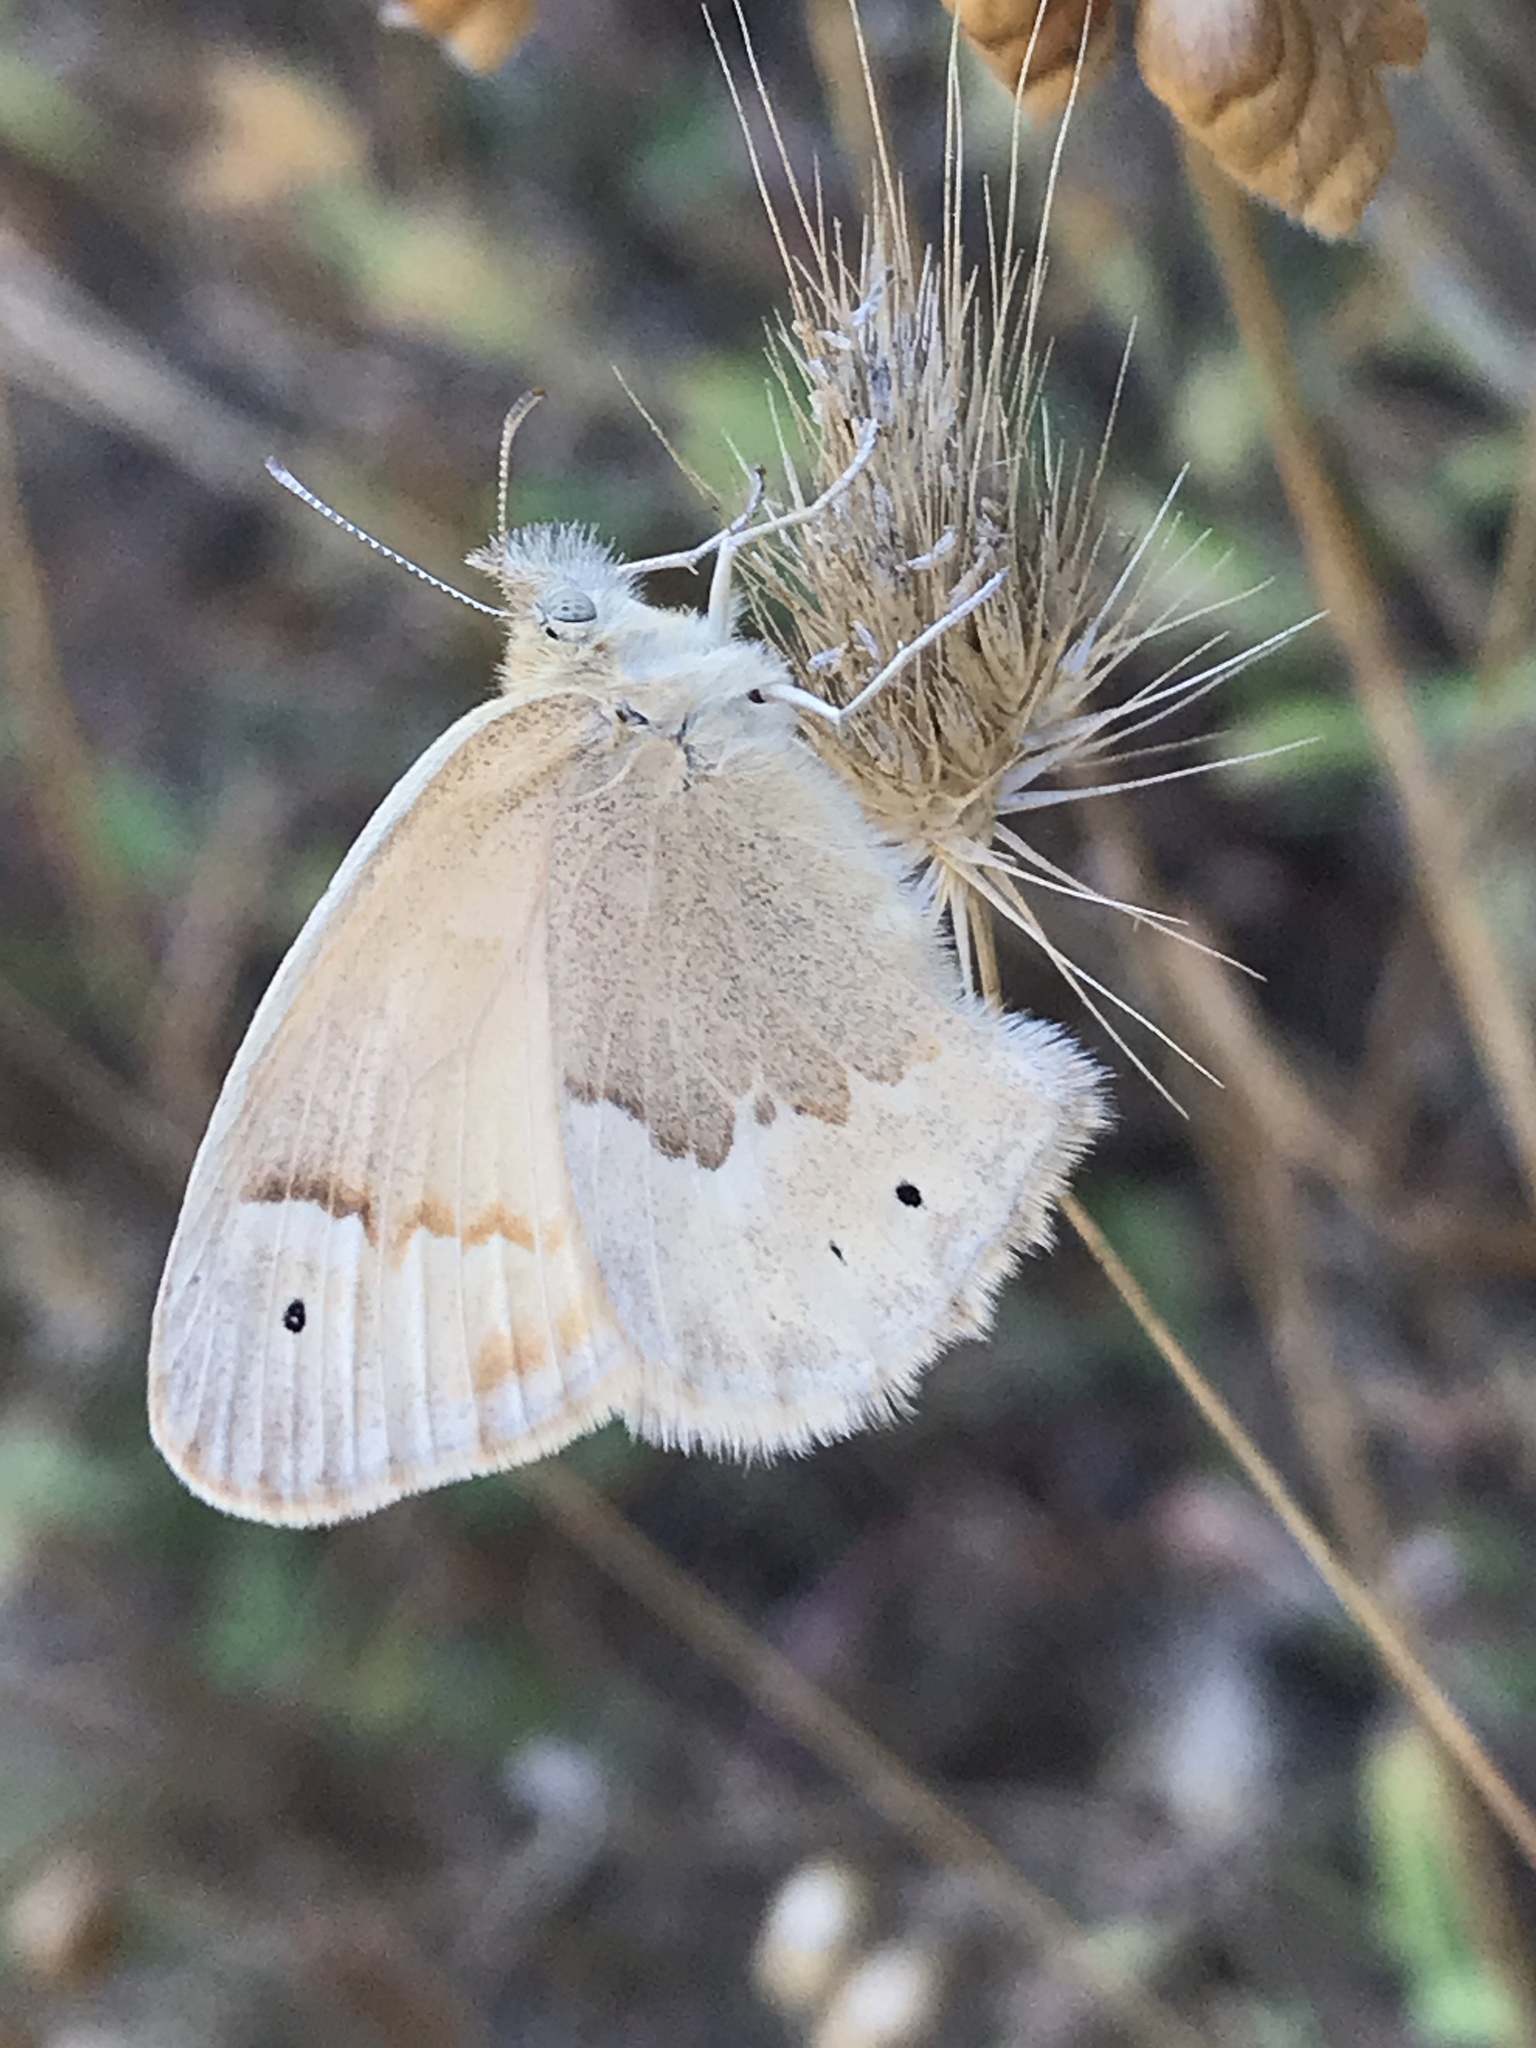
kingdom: Animalia
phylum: Arthropoda
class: Insecta
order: Lepidoptera
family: Nymphalidae
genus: Coenonympha
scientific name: Coenonympha california
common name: Common ringlet
